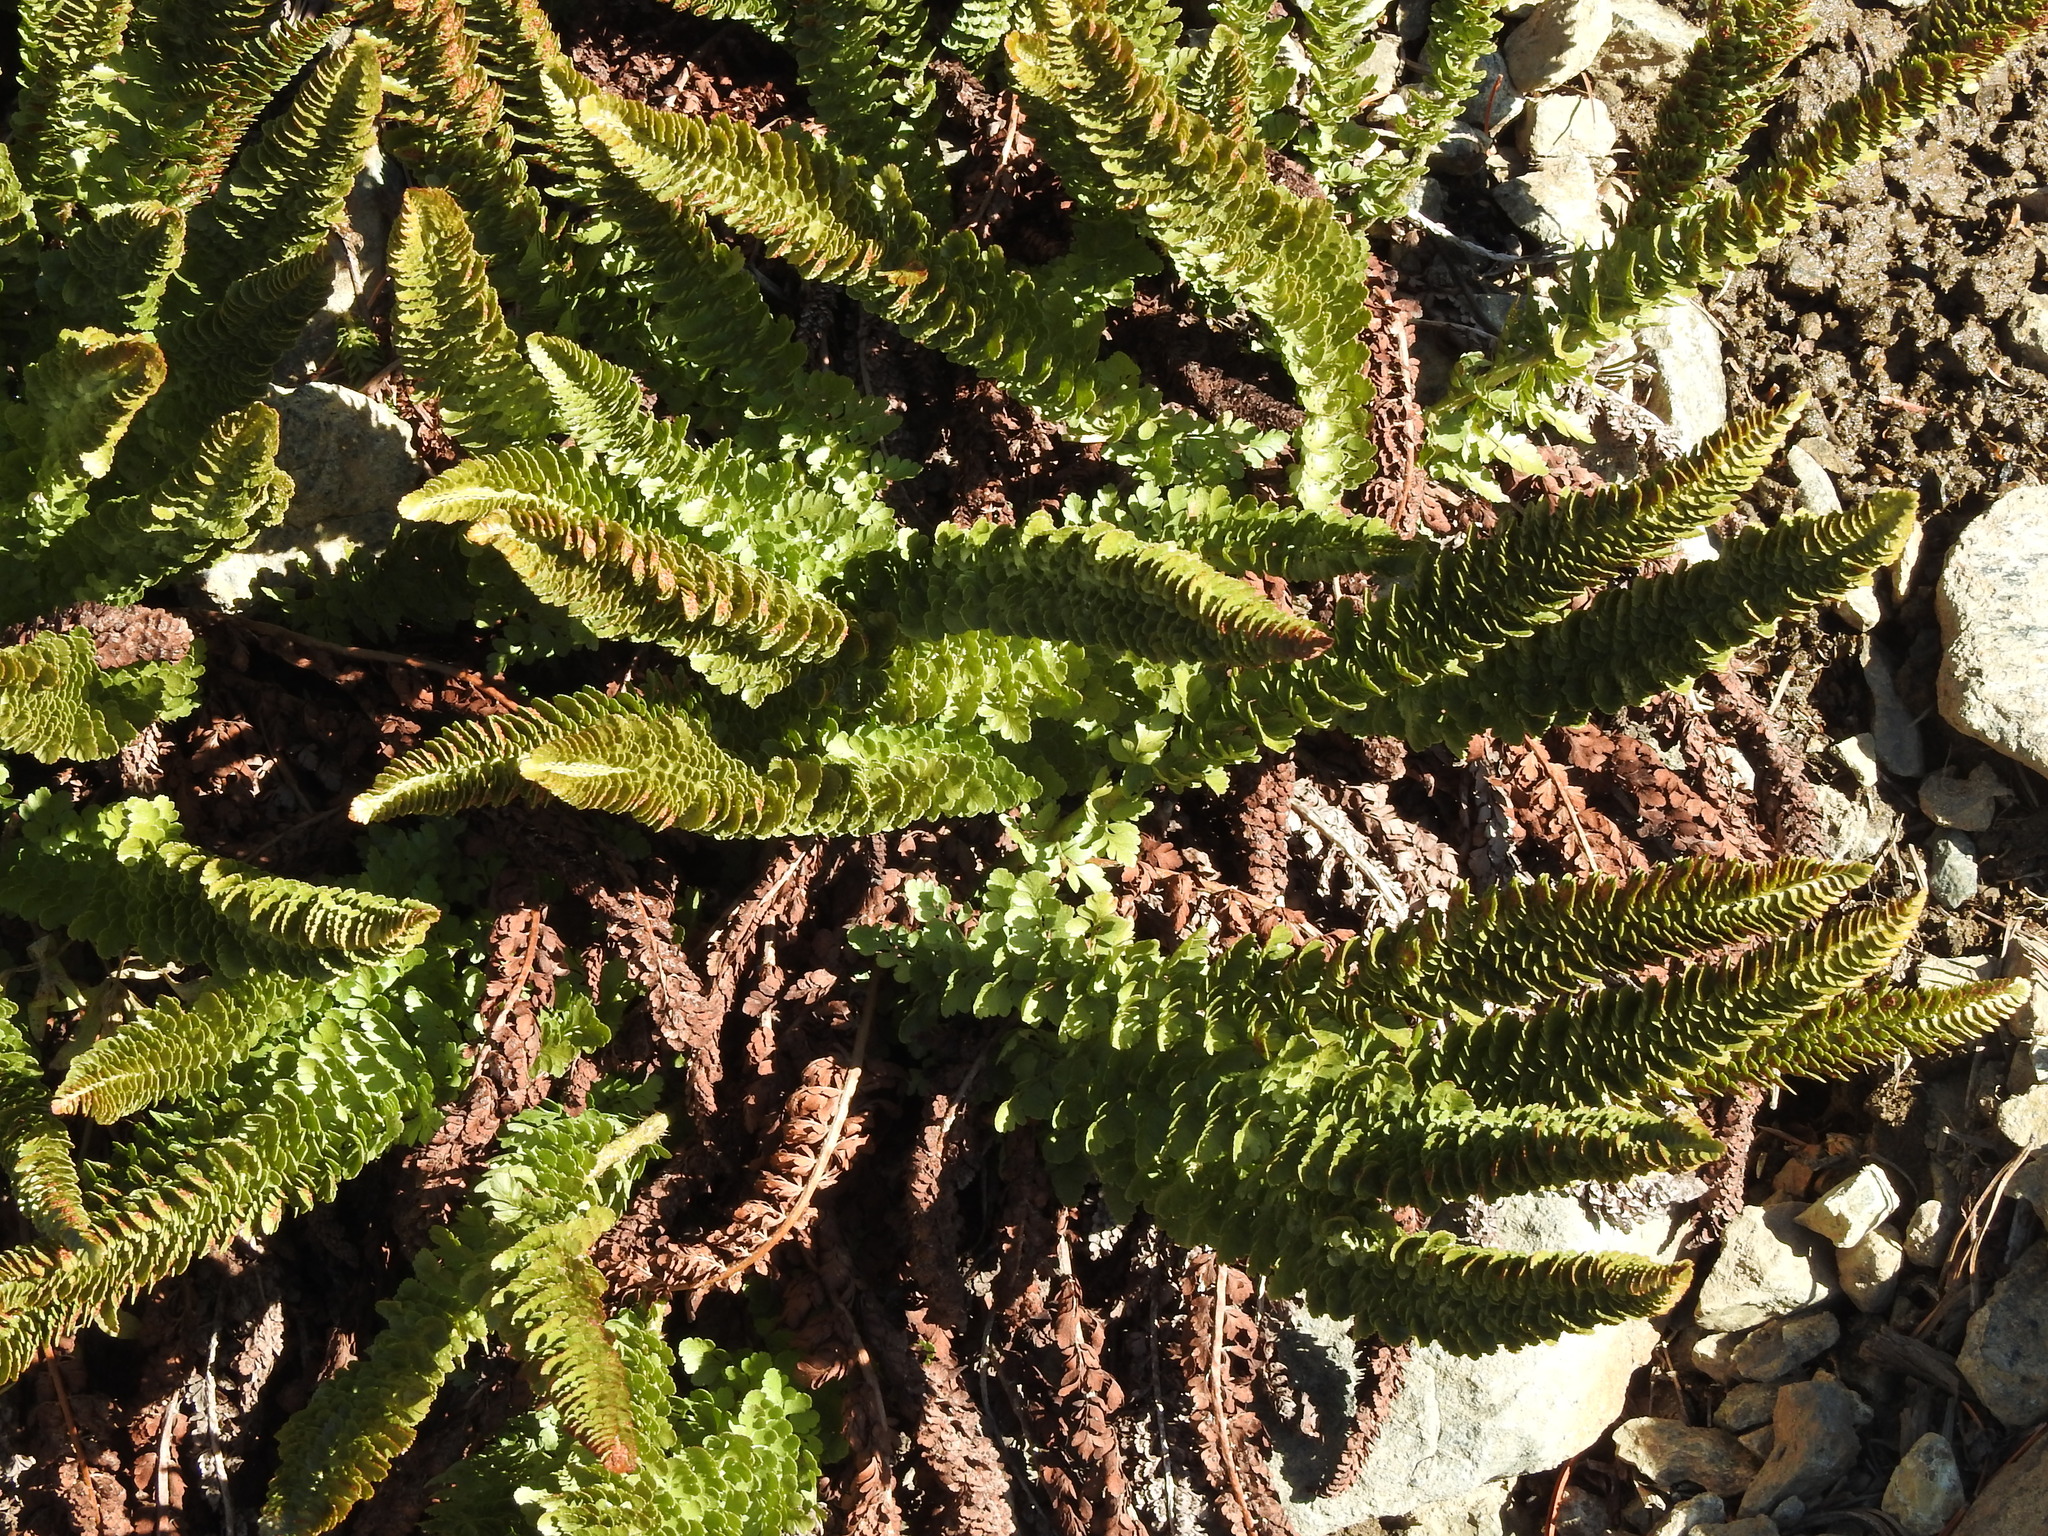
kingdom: Plantae
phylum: Tracheophyta
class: Polypodiopsida
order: Polypodiales
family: Dryopteridaceae
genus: Polystichum
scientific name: Polystichum lemmonii
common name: Lemmon's holly fern
